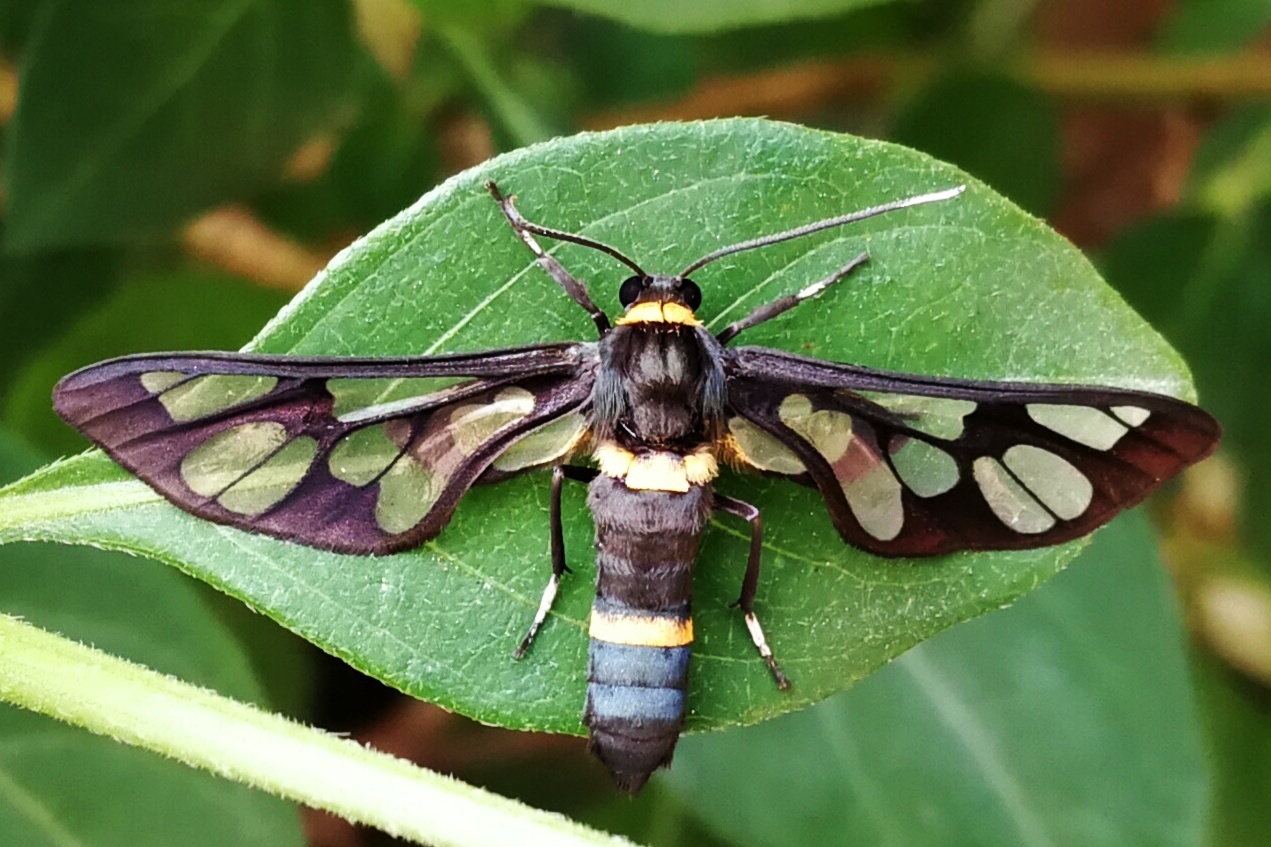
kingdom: Animalia
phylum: Arthropoda
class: Insecta
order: Lepidoptera
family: Erebidae
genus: Syntomoides
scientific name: Syntomoides imaon
